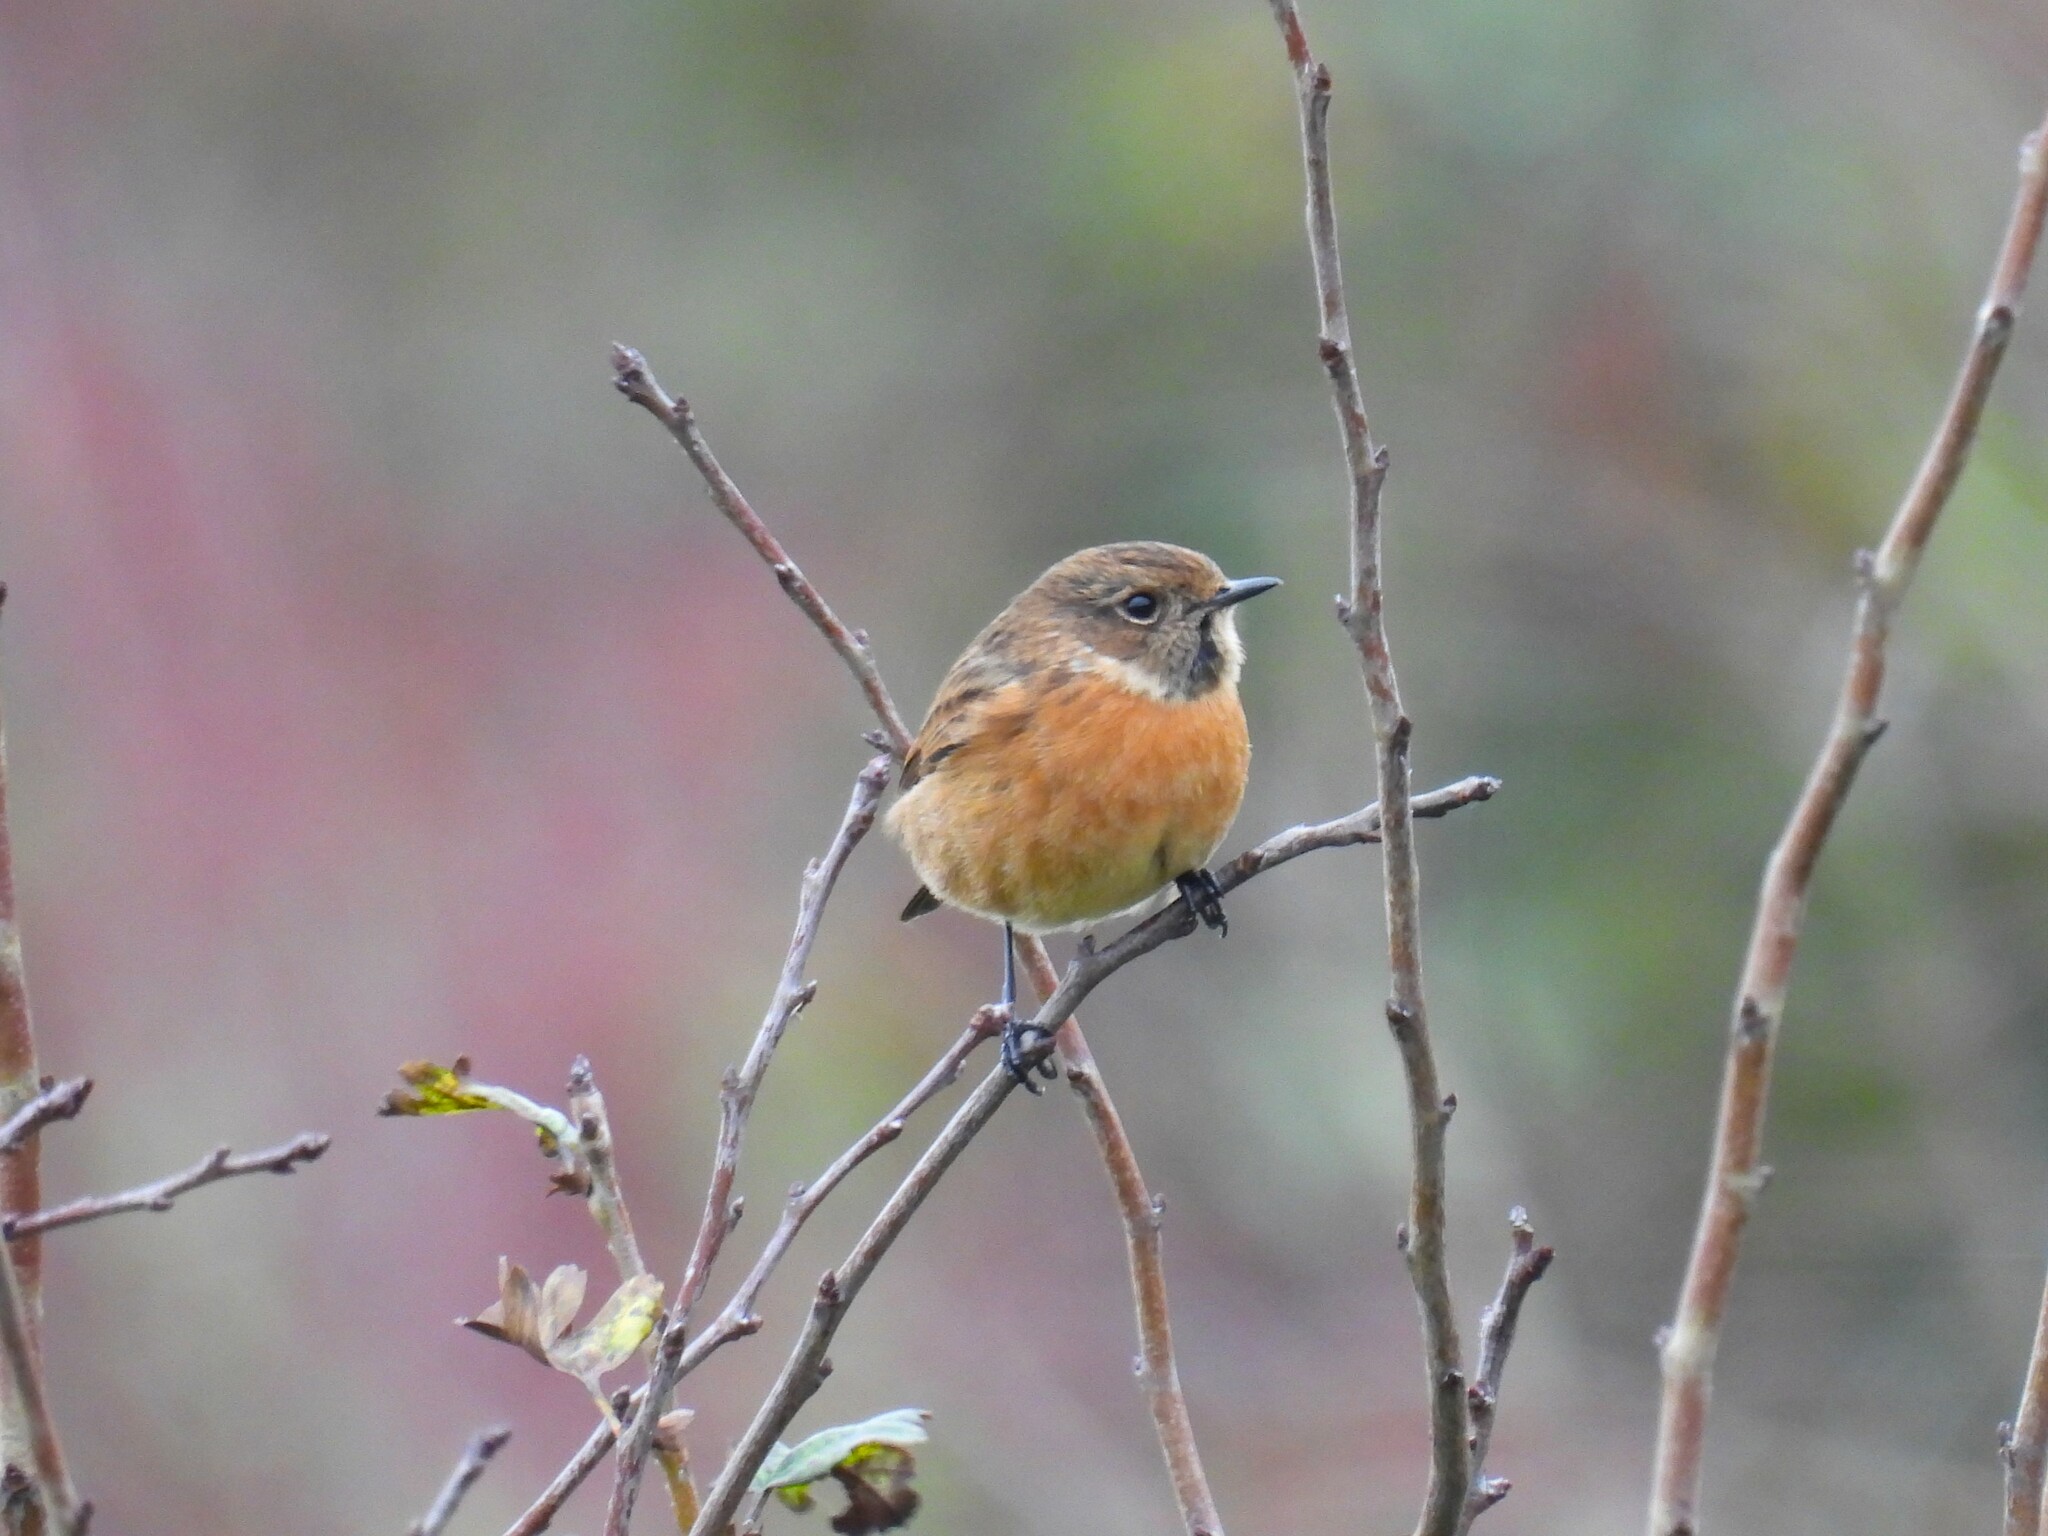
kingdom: Animalia
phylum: Chordata
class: Aves
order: Passeriformes
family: Muscicapidae
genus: Saxicola
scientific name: Saxicola rubicola
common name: European stonechat
